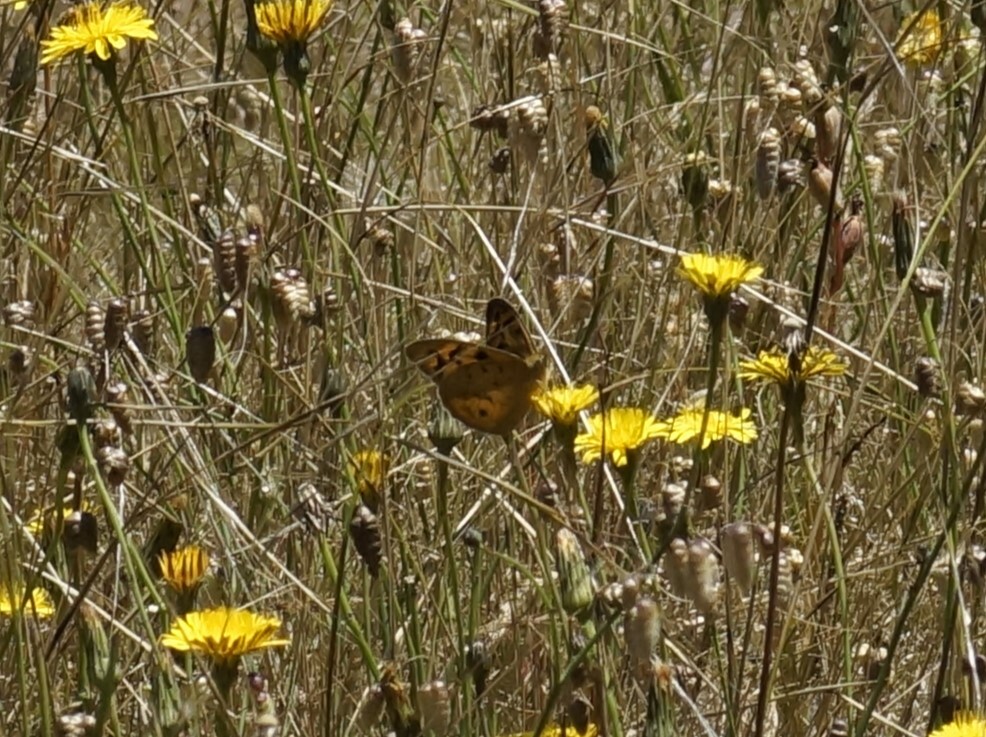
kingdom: Animalia
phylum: Arthropoda
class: Insecta
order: Lepidoptera
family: Nymphalidae
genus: Heteronympha
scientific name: Heteronympha merope
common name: Common brown
